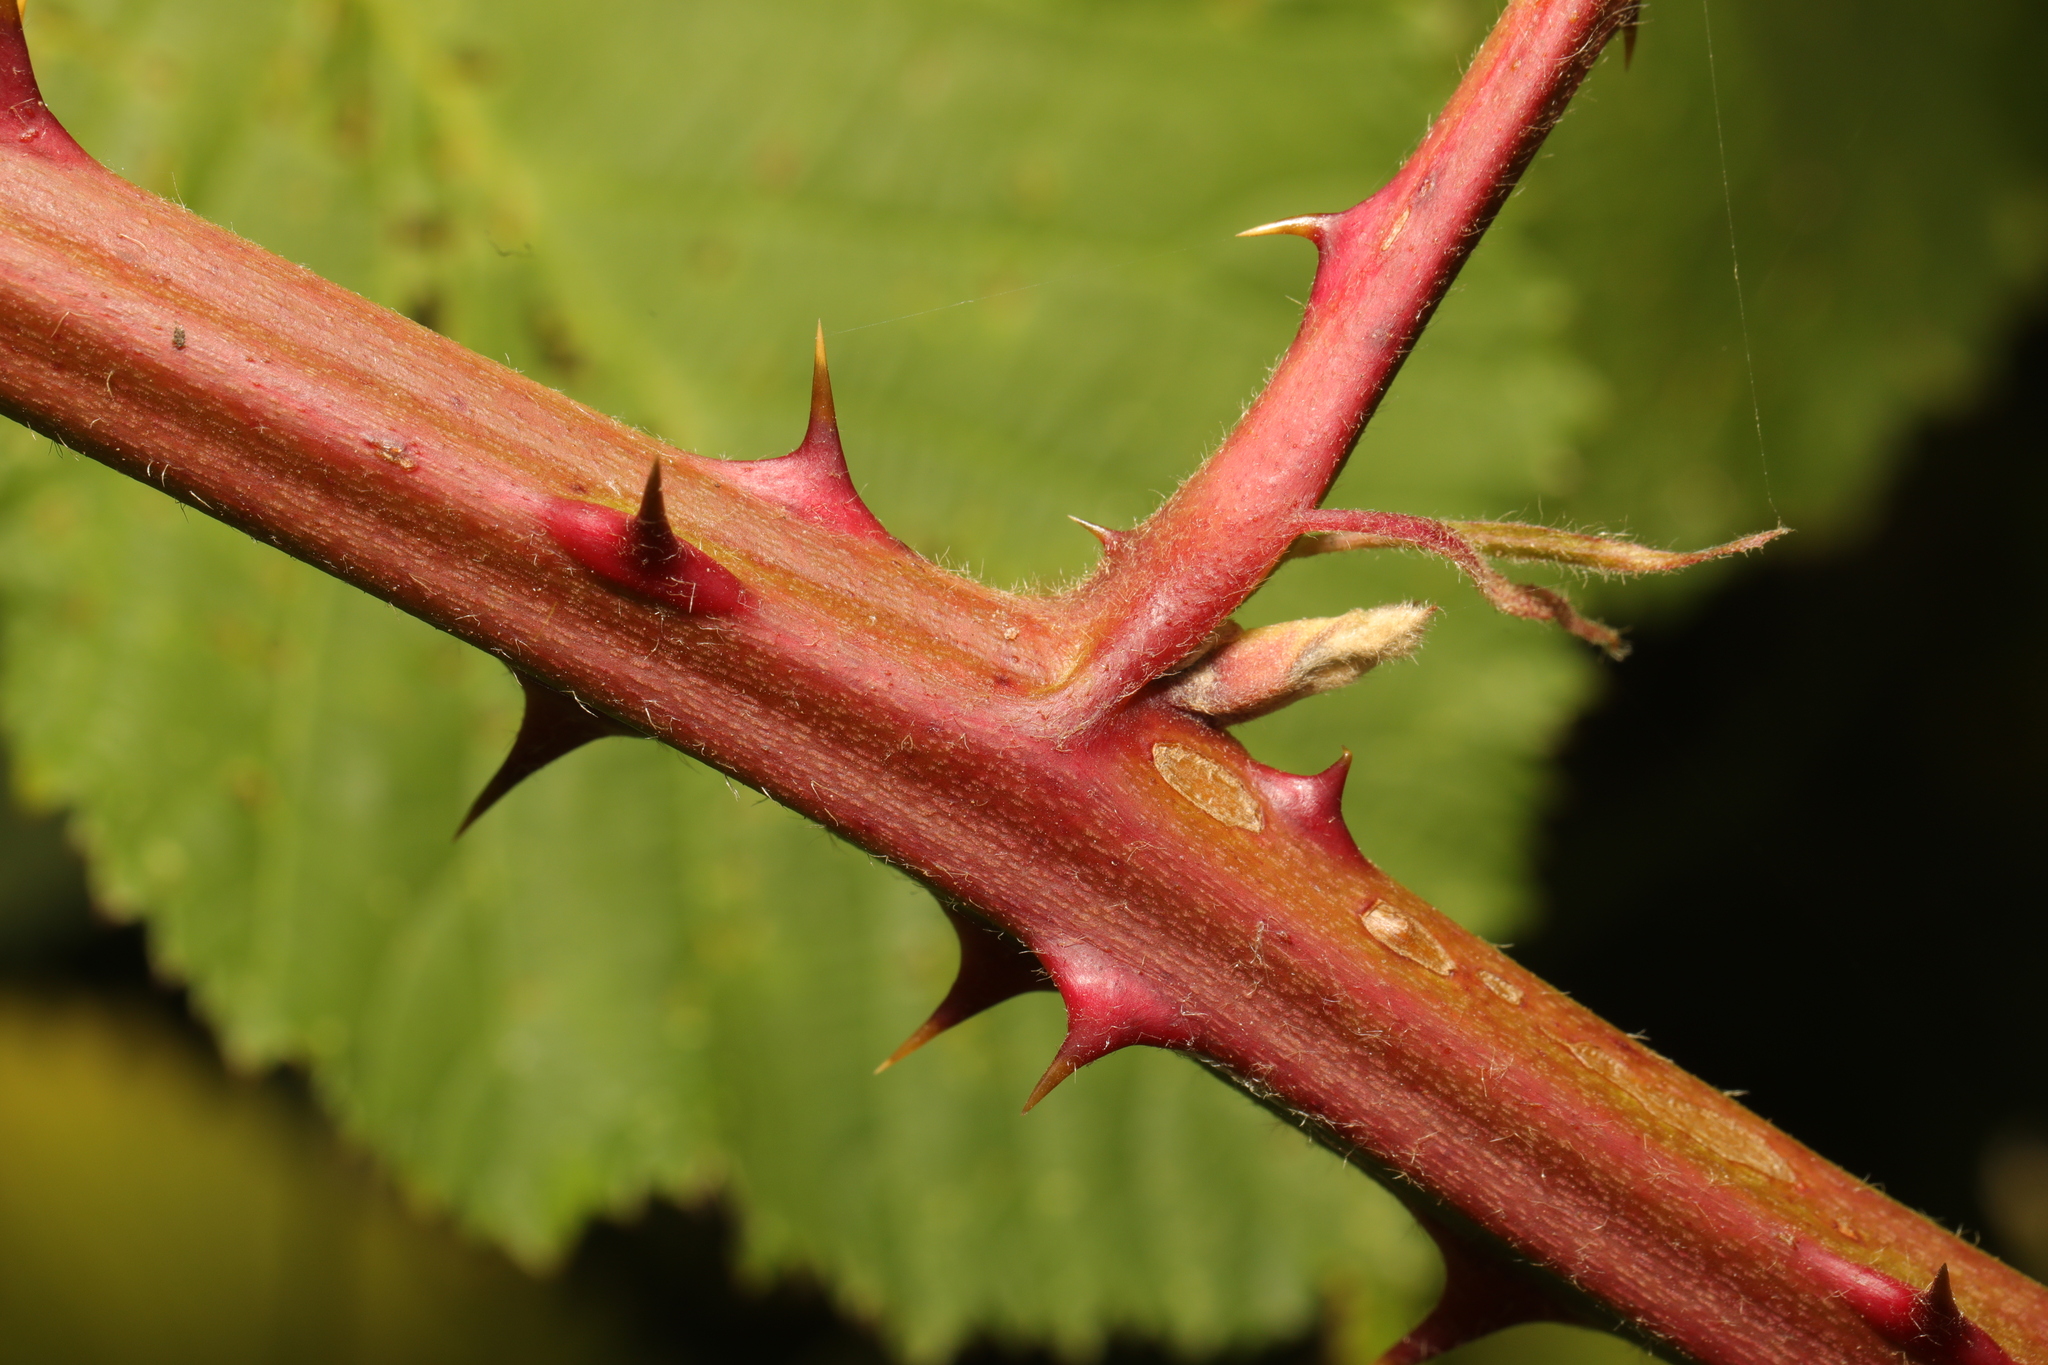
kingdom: Plantae
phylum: Tracheophyta
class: Magnoliopsida
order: Rosales
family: Rosaceae
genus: Rubus
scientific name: Rubus armeniacus
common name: Himalayan blackberry
